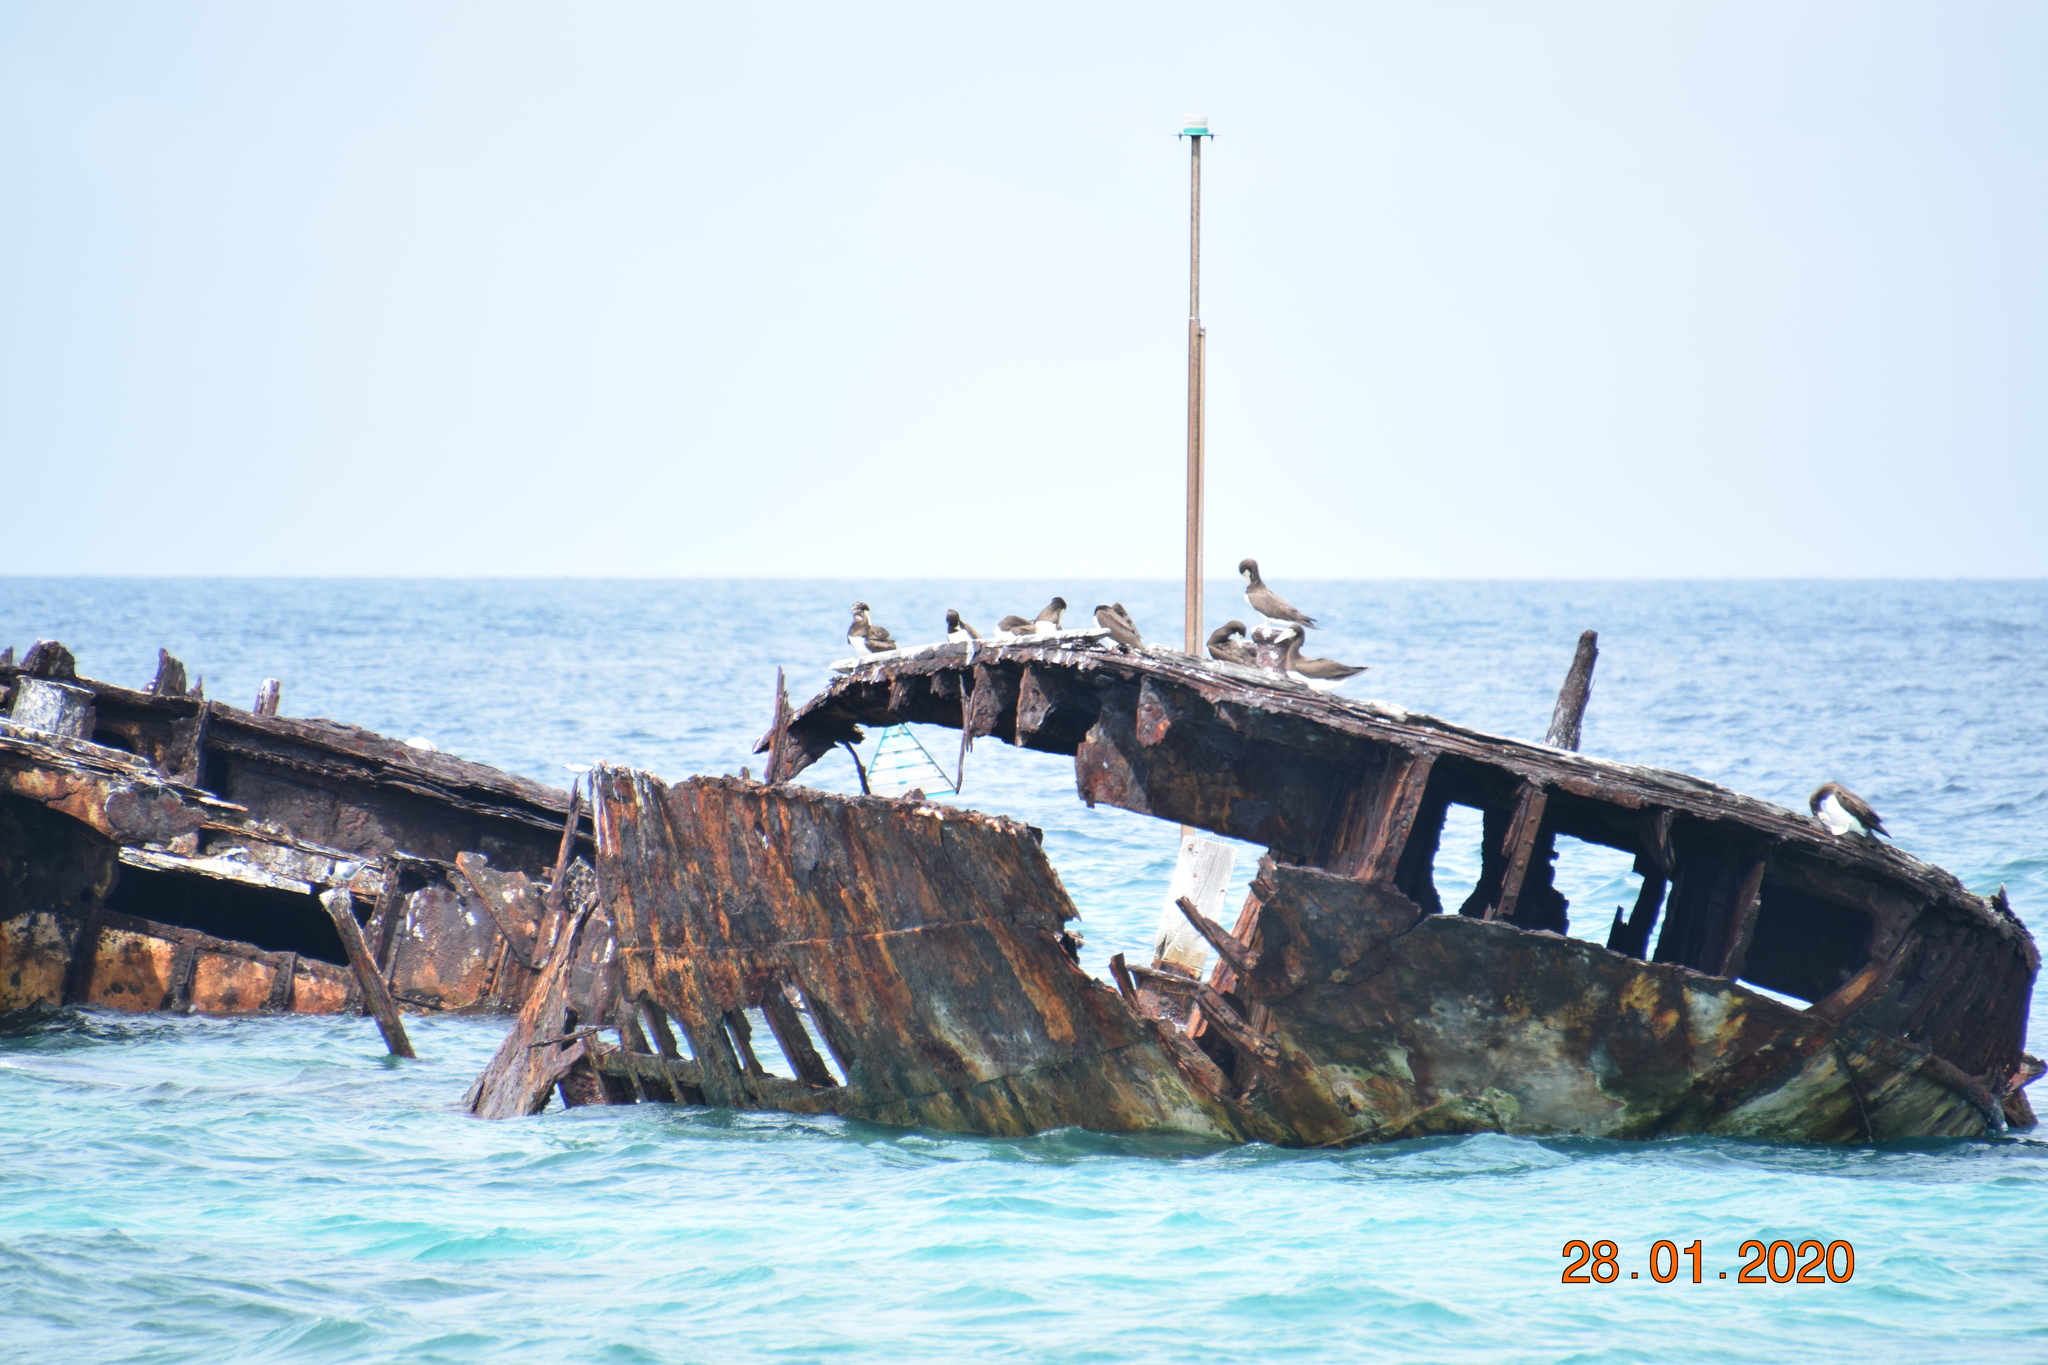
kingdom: Animalia
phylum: Chordata
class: Aves
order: Suliformes
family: Sulidae
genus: Sula
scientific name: Sula leucogaster
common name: Brown booby
